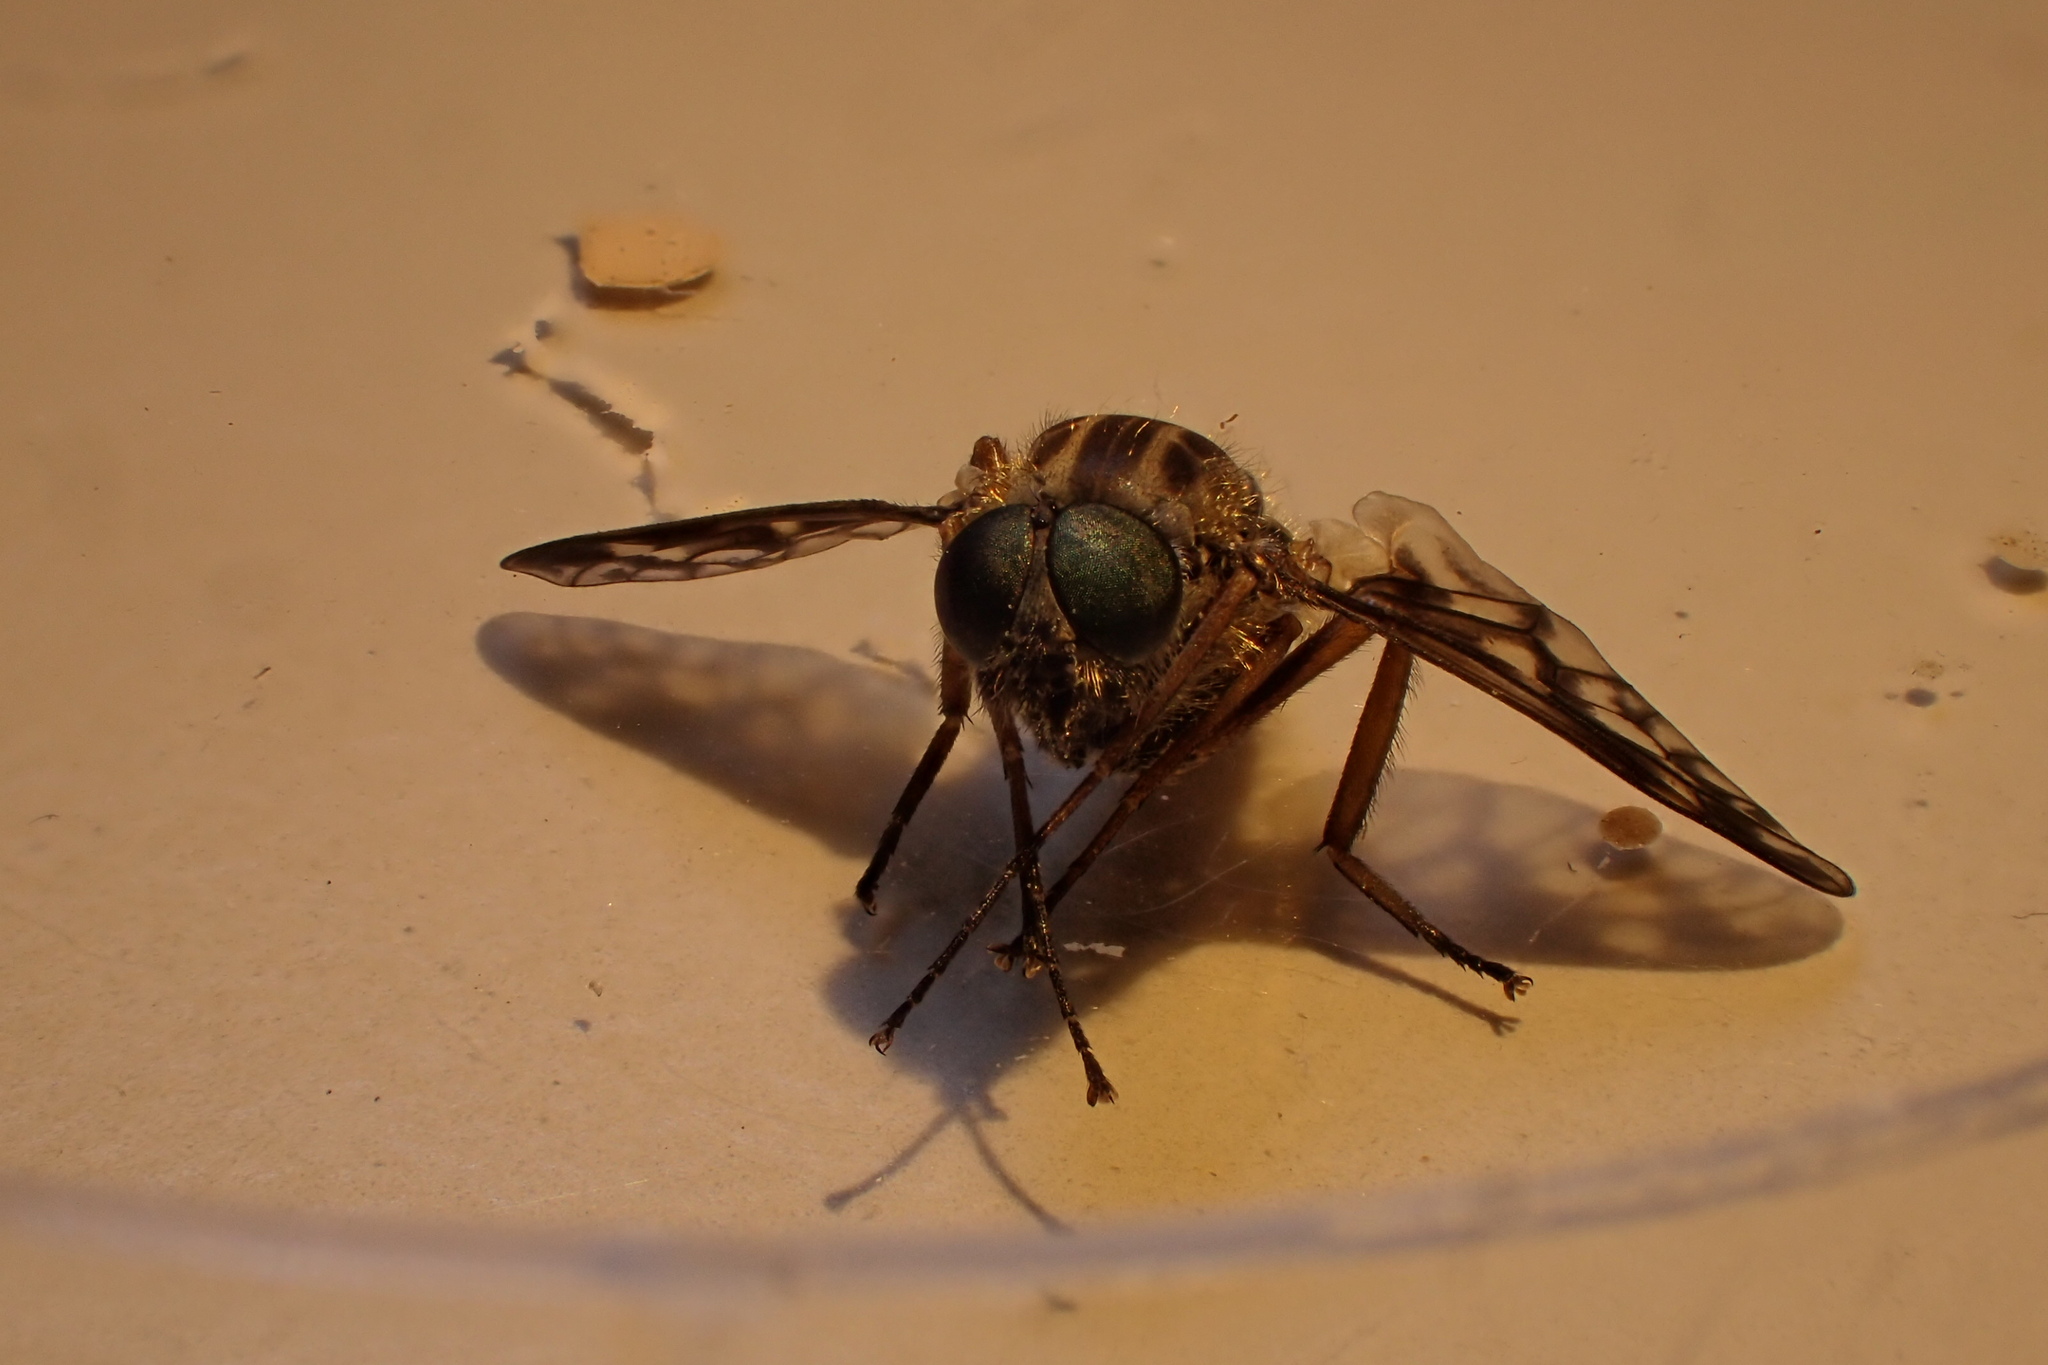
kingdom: Animalia
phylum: Arthropoda
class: Insecta
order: Diptera
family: Athericidae
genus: Atherix
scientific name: Atherix ibis
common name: Yellow-legged water-snipefly
